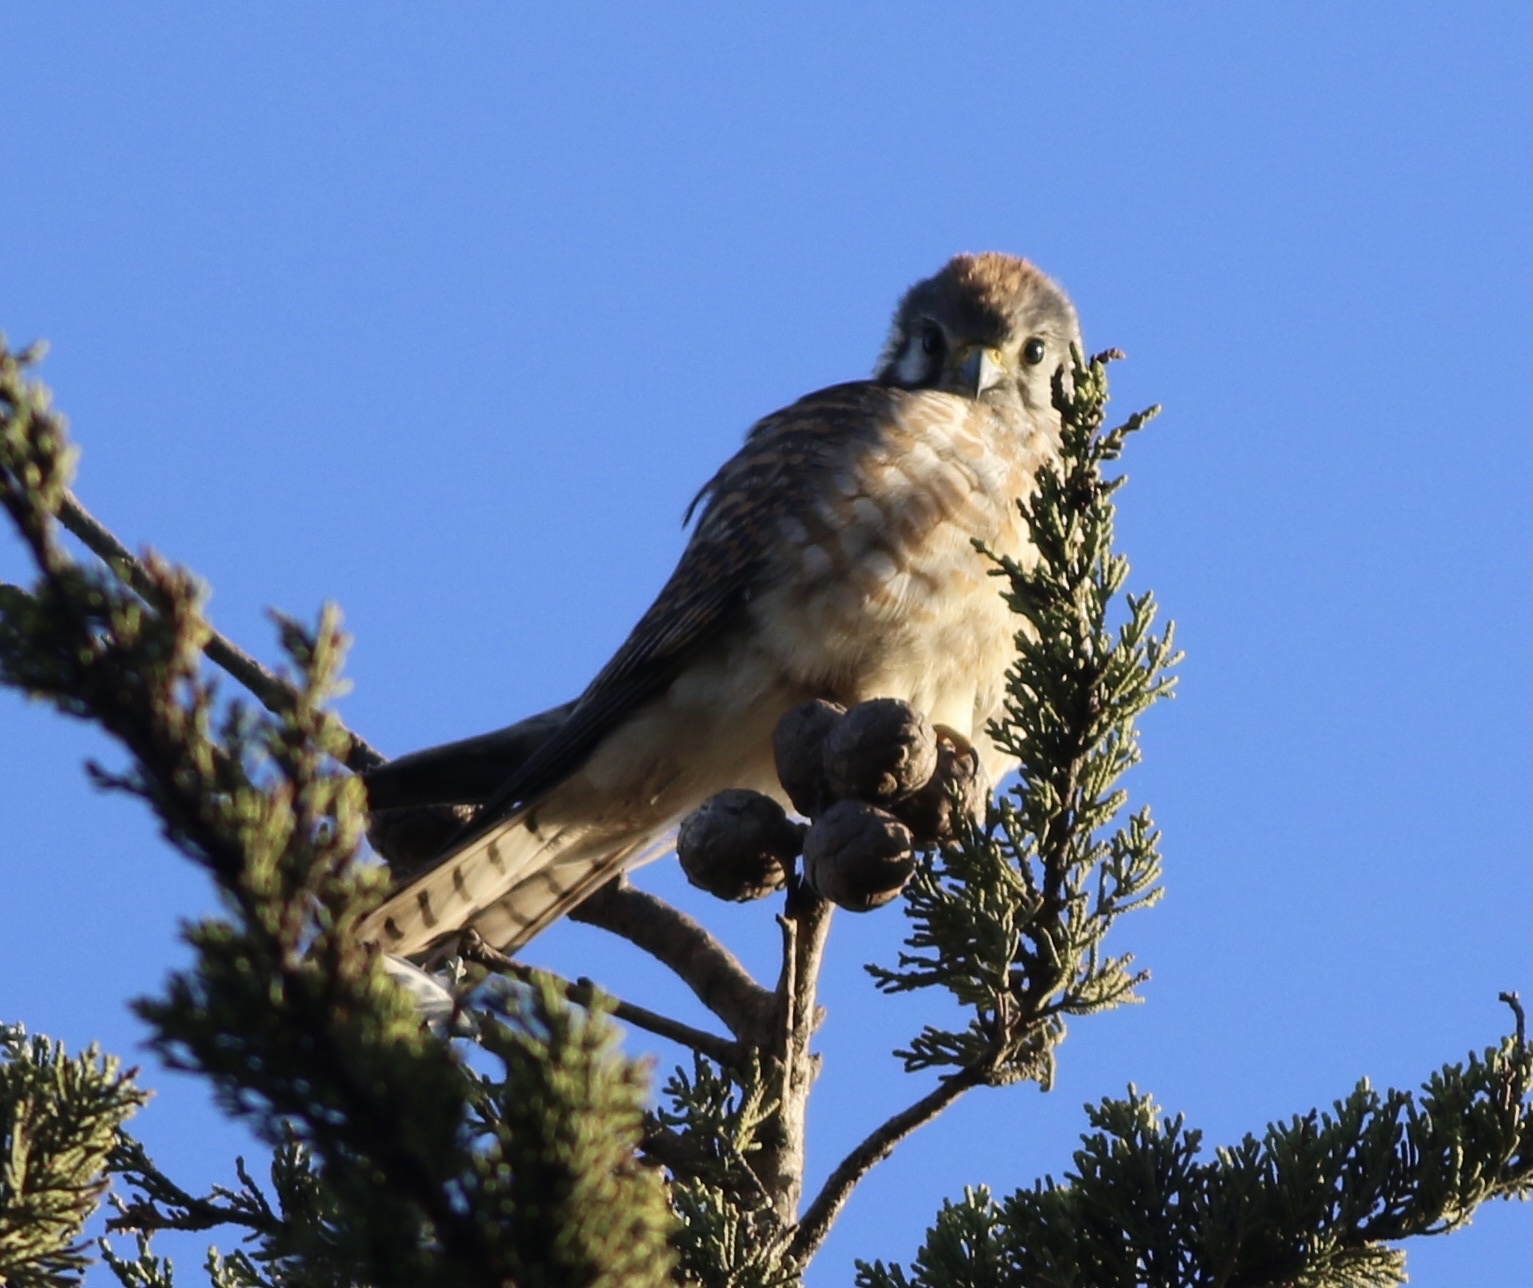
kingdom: Animalia
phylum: Chordata
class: Aves
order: Falconiformes
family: Falconidae
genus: Falco
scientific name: Falco sparverius
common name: American kestrel
